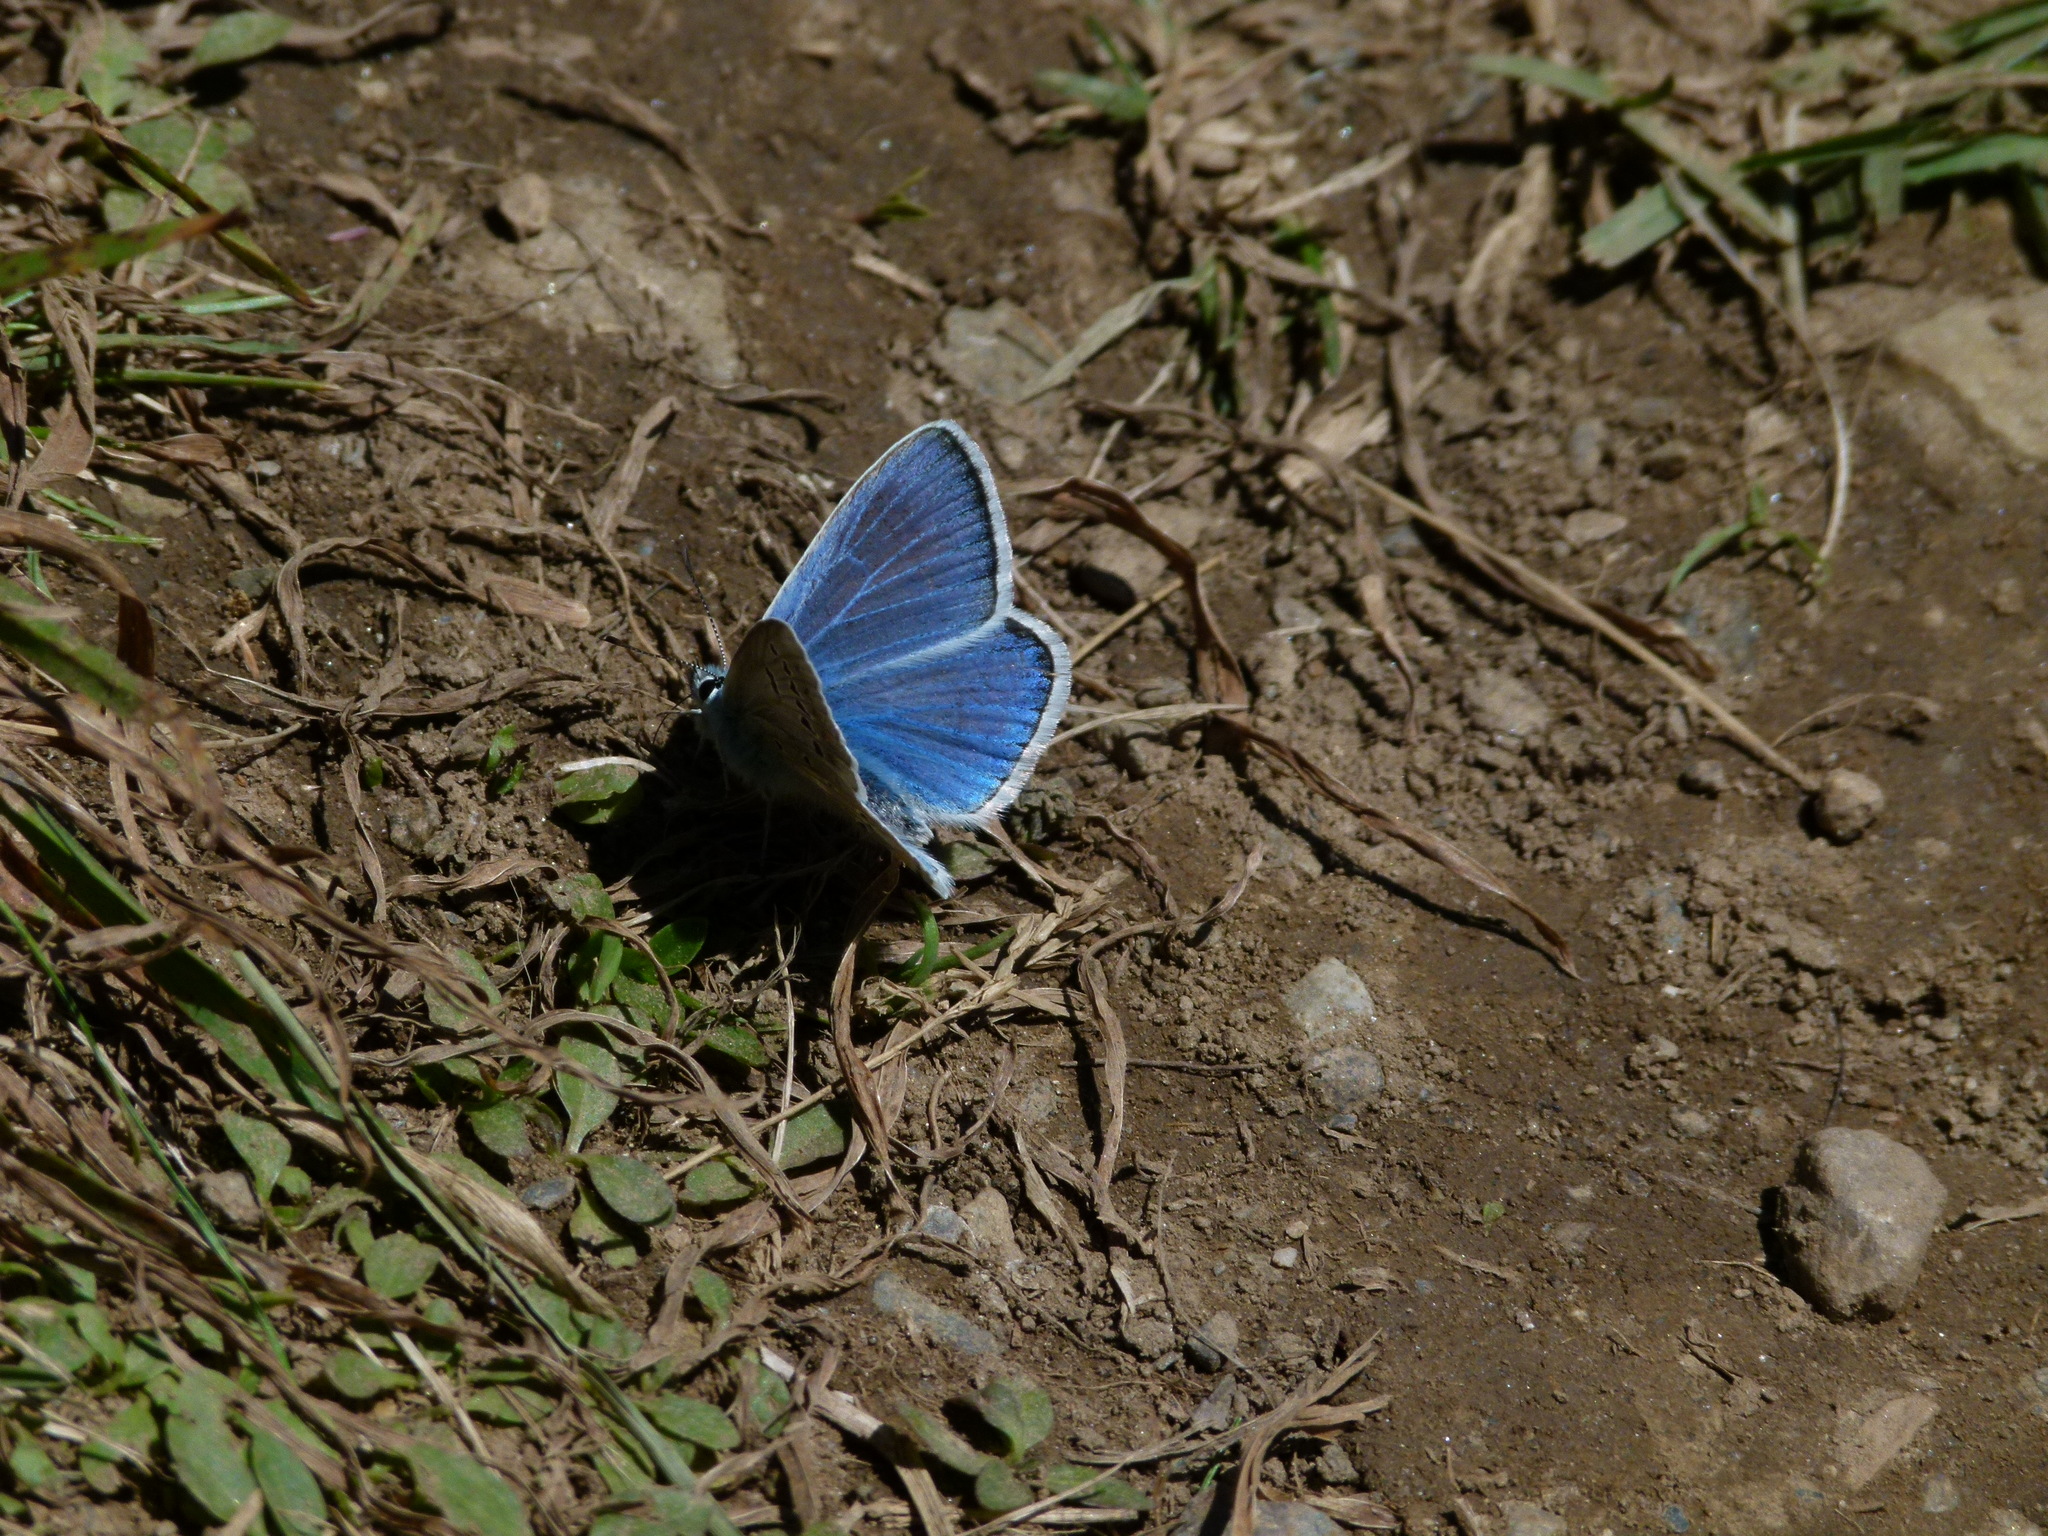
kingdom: Animalia
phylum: Arthropoda
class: Insecta
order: Lepidoptera
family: Lycaenidae
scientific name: Lycaenidae
